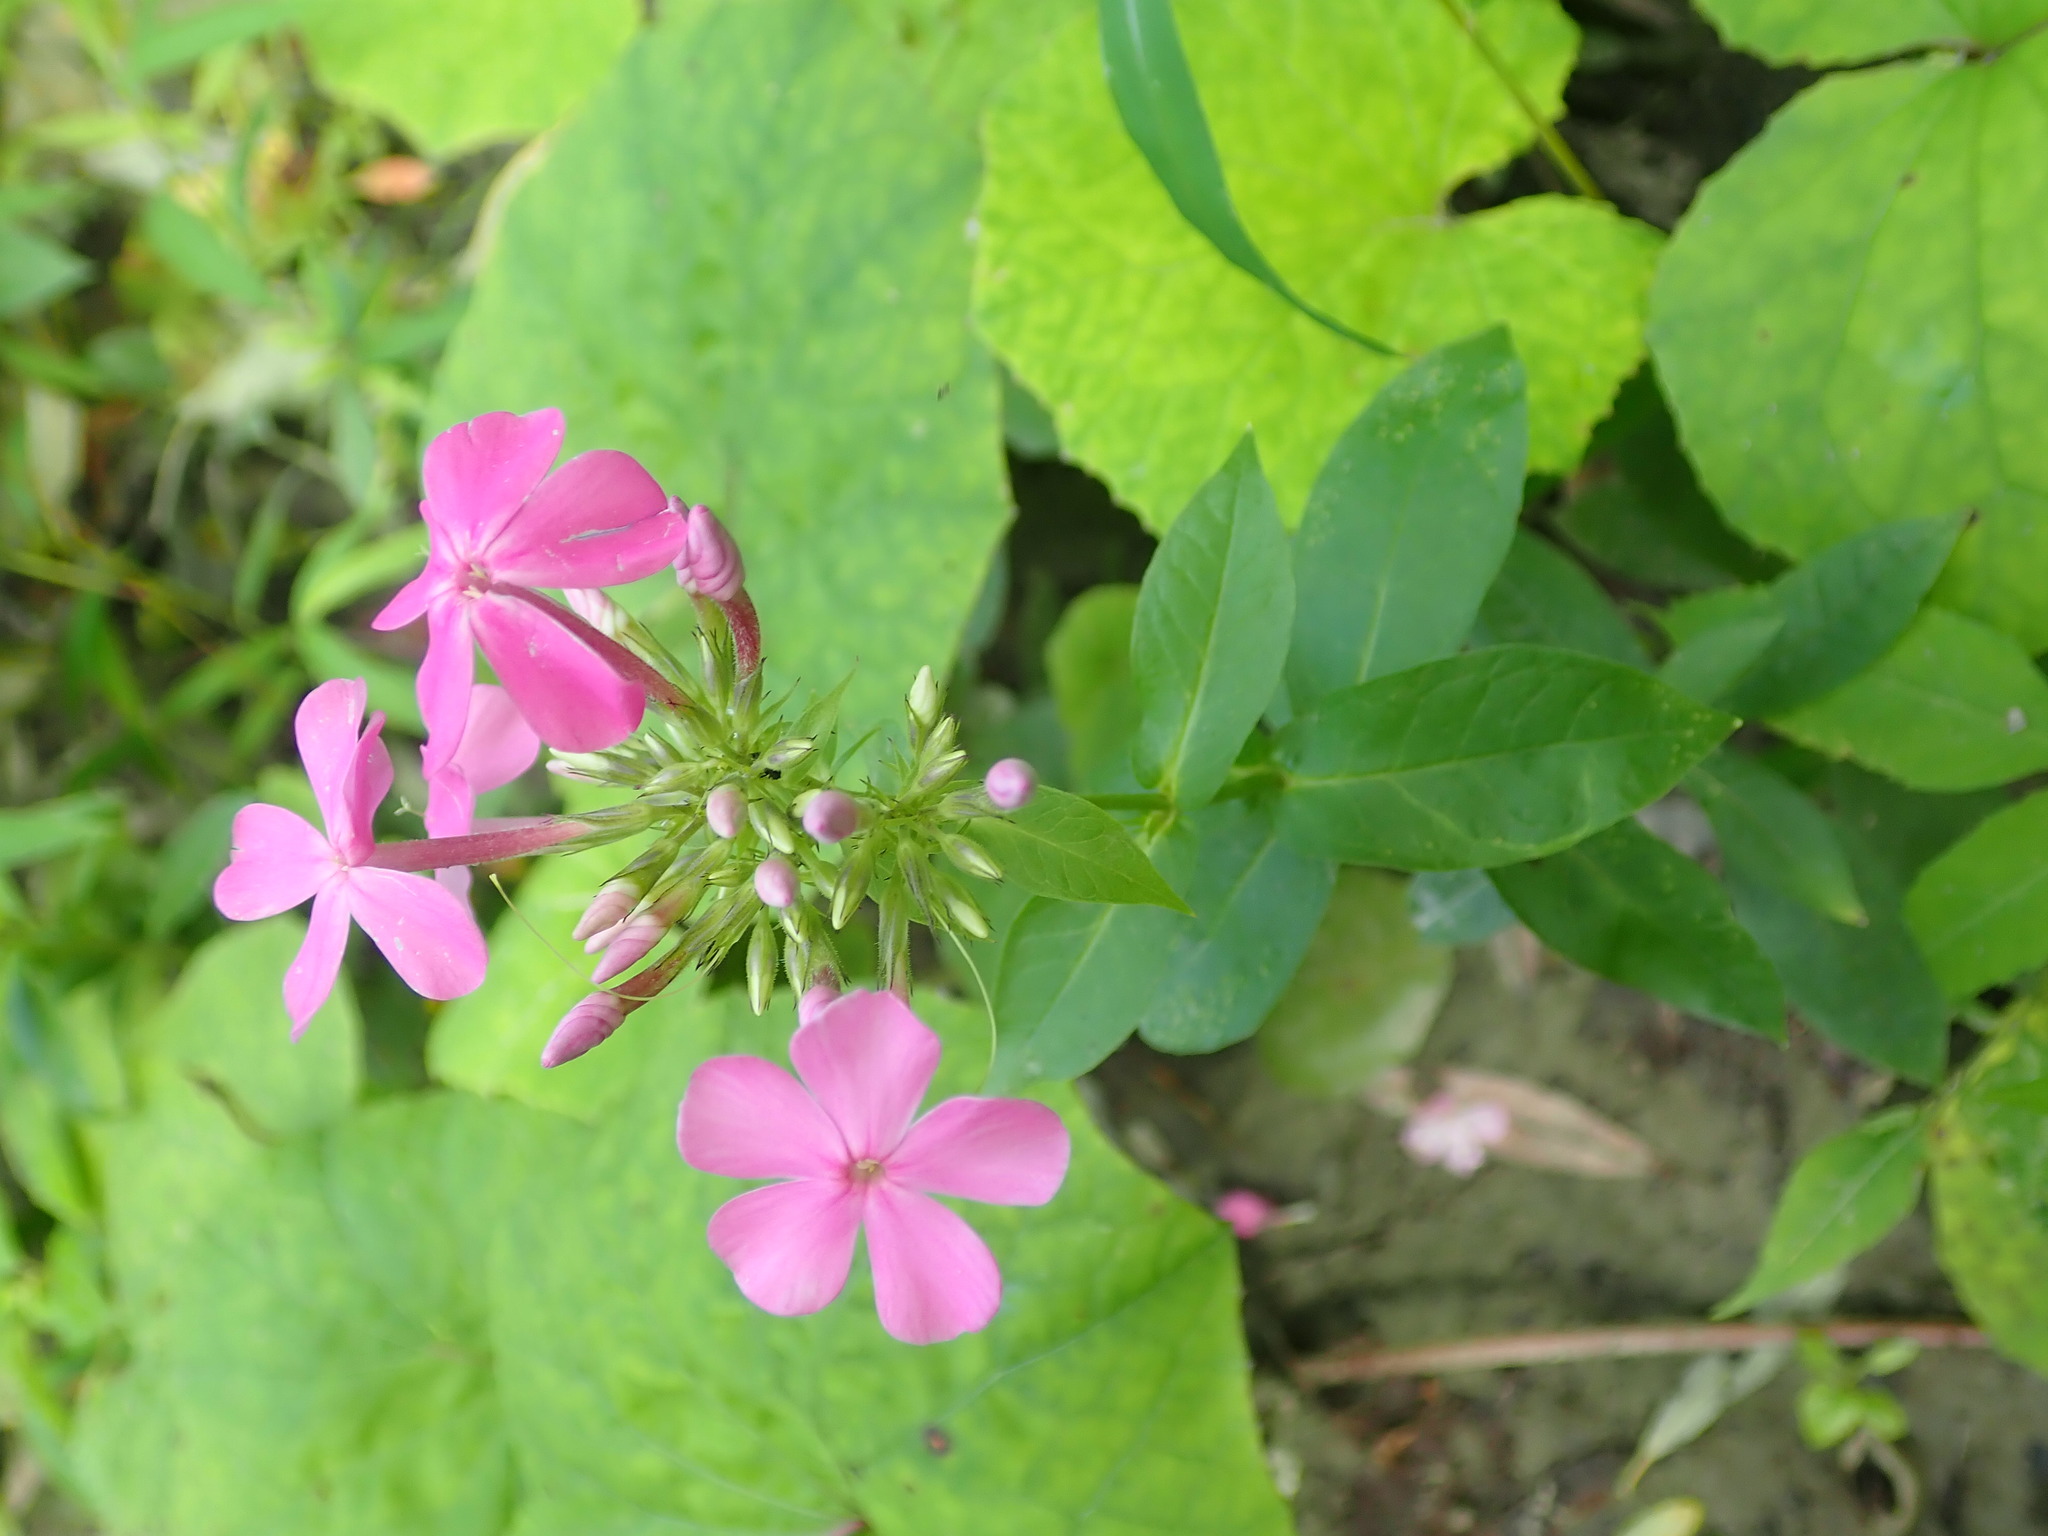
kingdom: Plantae
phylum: Tracheophyta
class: Magnoliopsida
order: Ericales
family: Polemoniaceae
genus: Phlox
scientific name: Phlox paniculata
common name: Fall phlox
